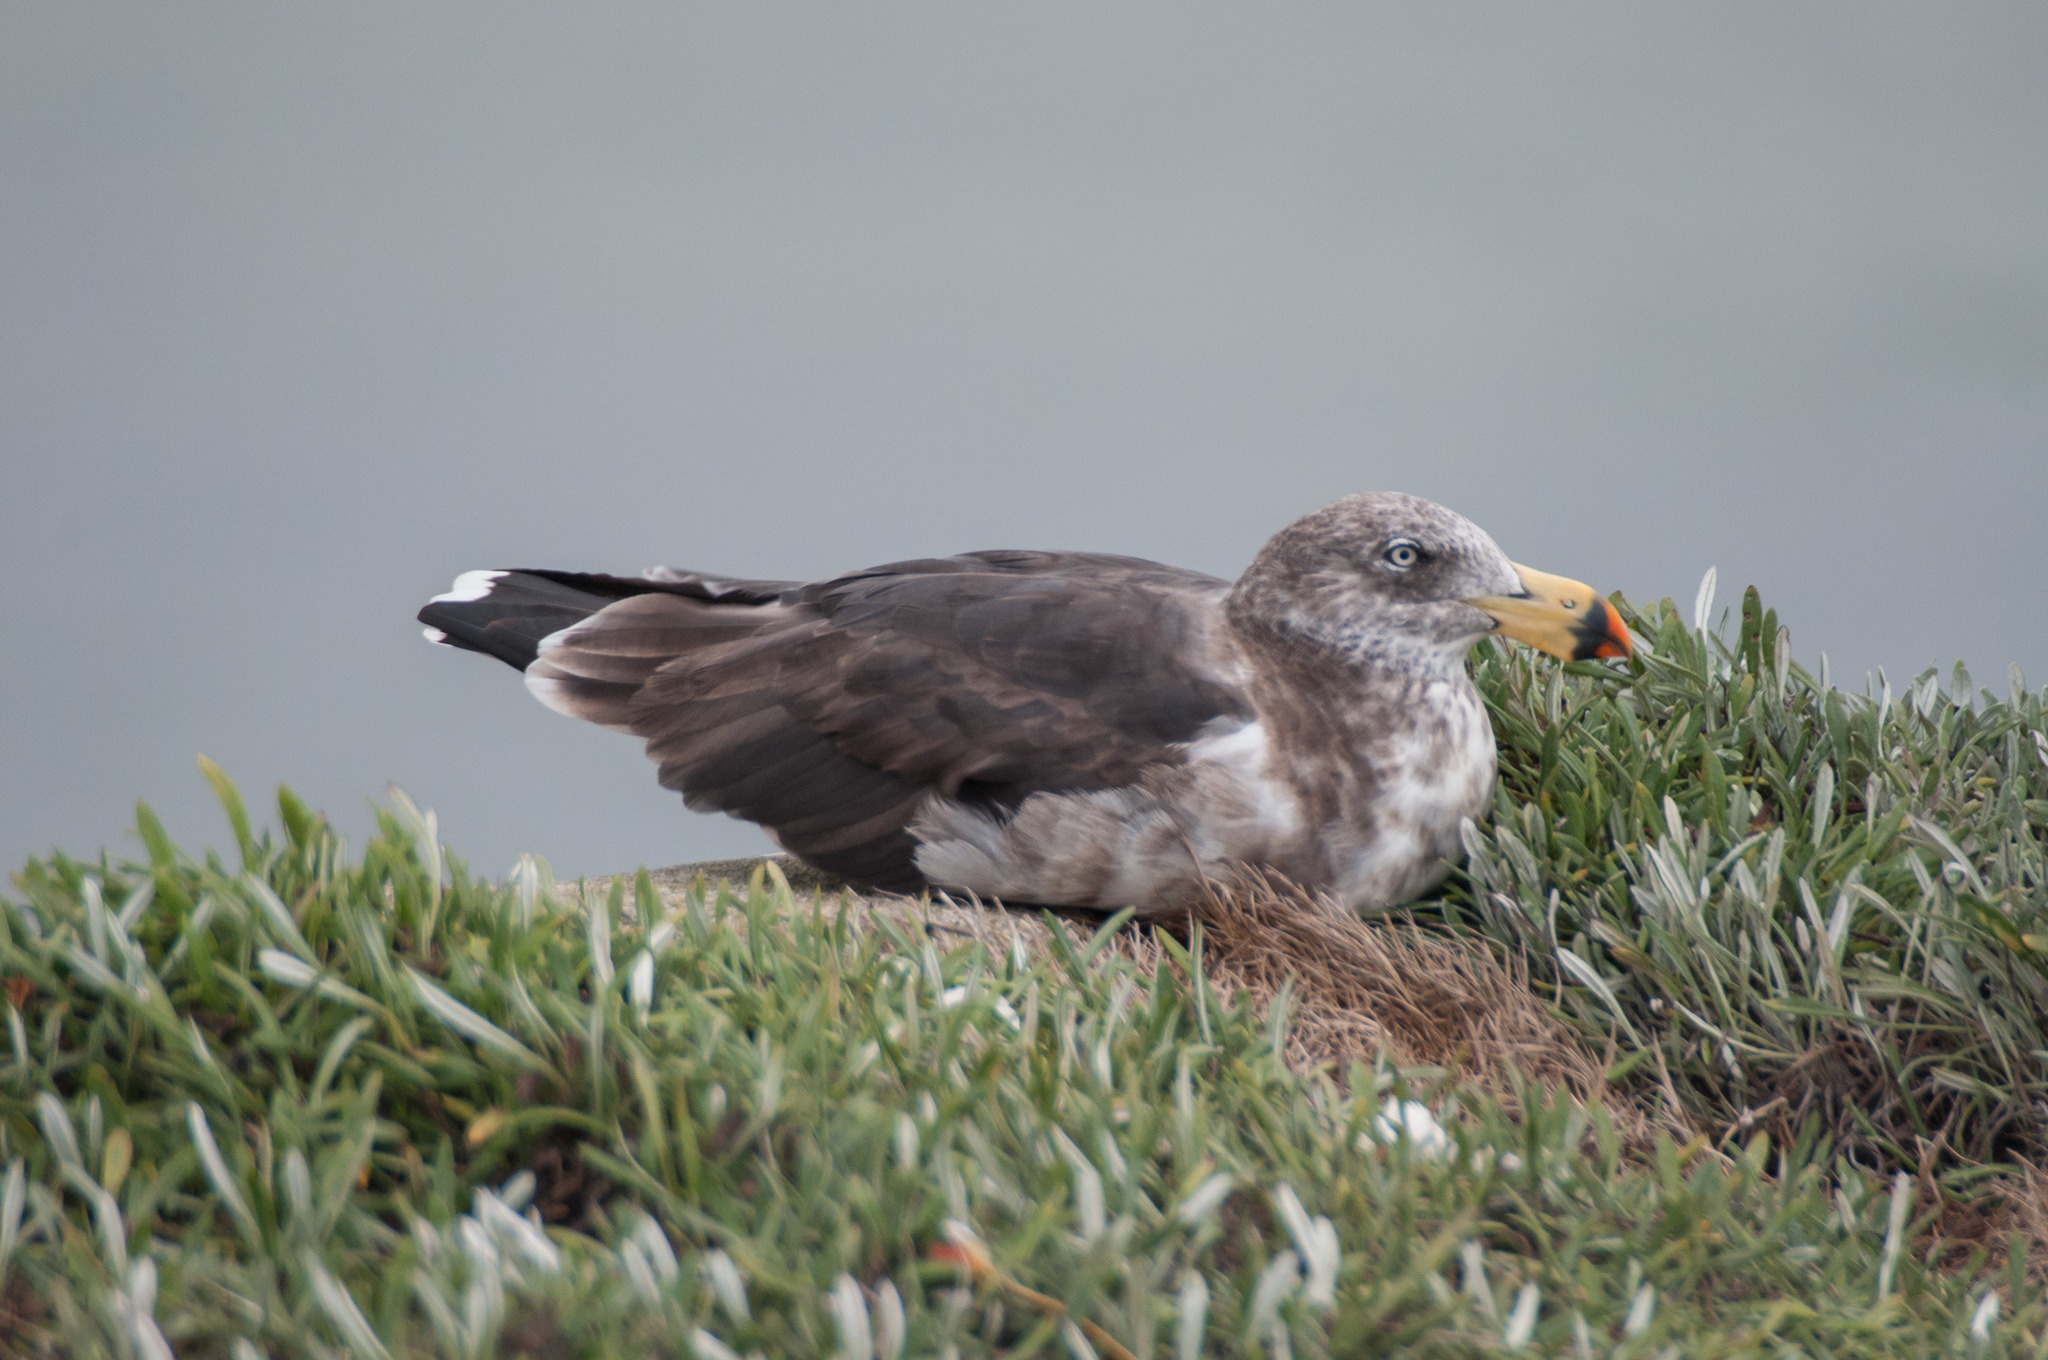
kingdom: Animalia
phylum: Chordata
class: Aves
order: Charadriiformes
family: Laridae
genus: Larus
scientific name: Larus pacificus
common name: Pacific gull
